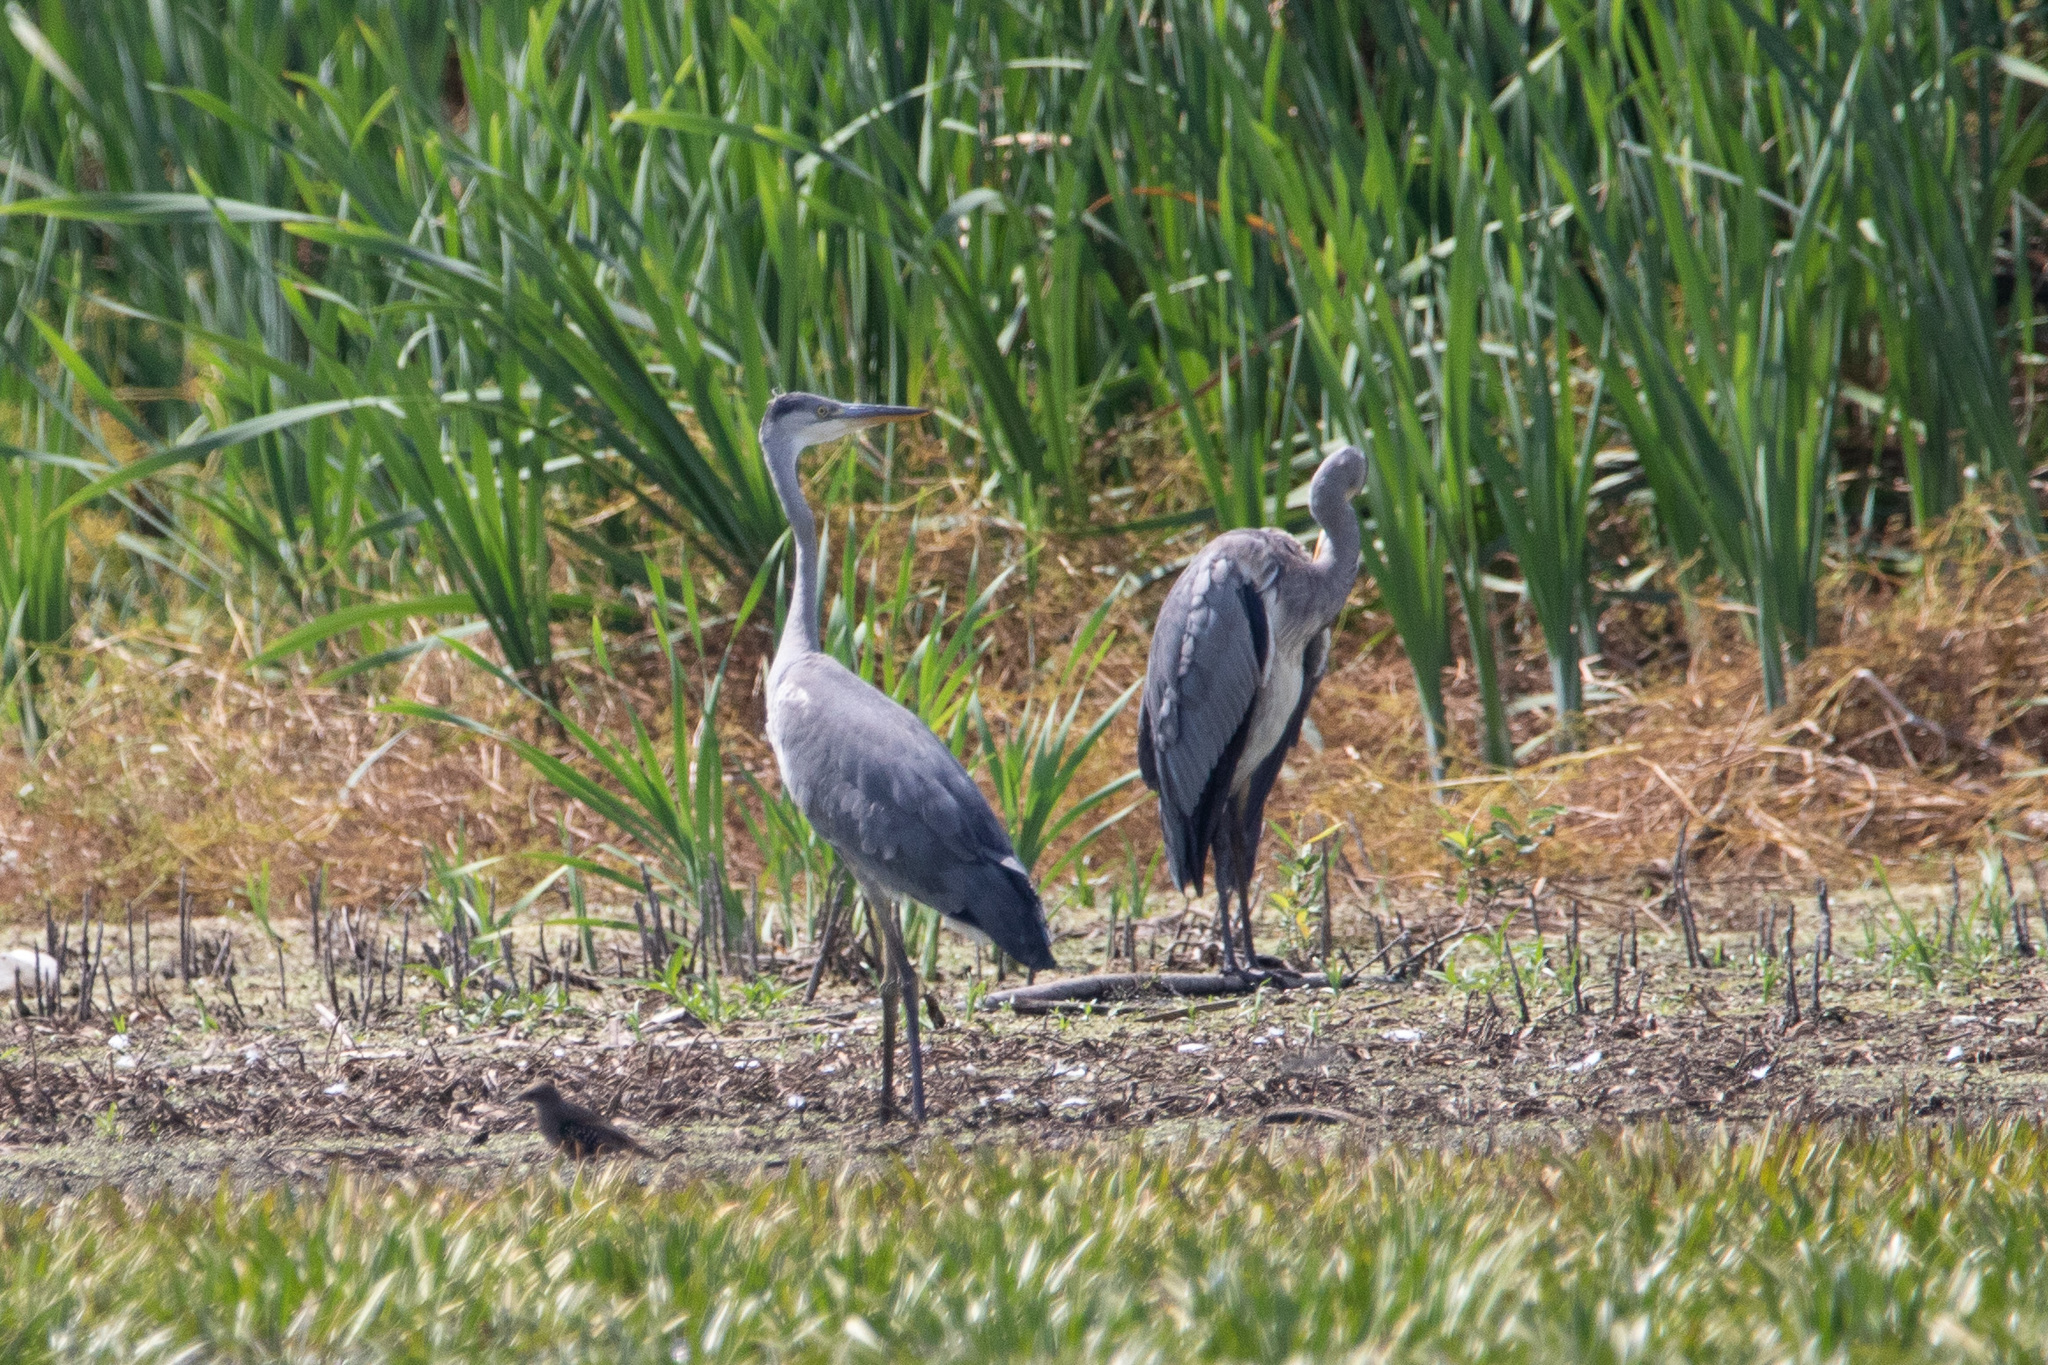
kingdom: Animalia
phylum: Chordata
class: Aves
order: Pelecaniformes
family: Ardeidae
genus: Ardea
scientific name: Ardea cinerea
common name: Grey heron
